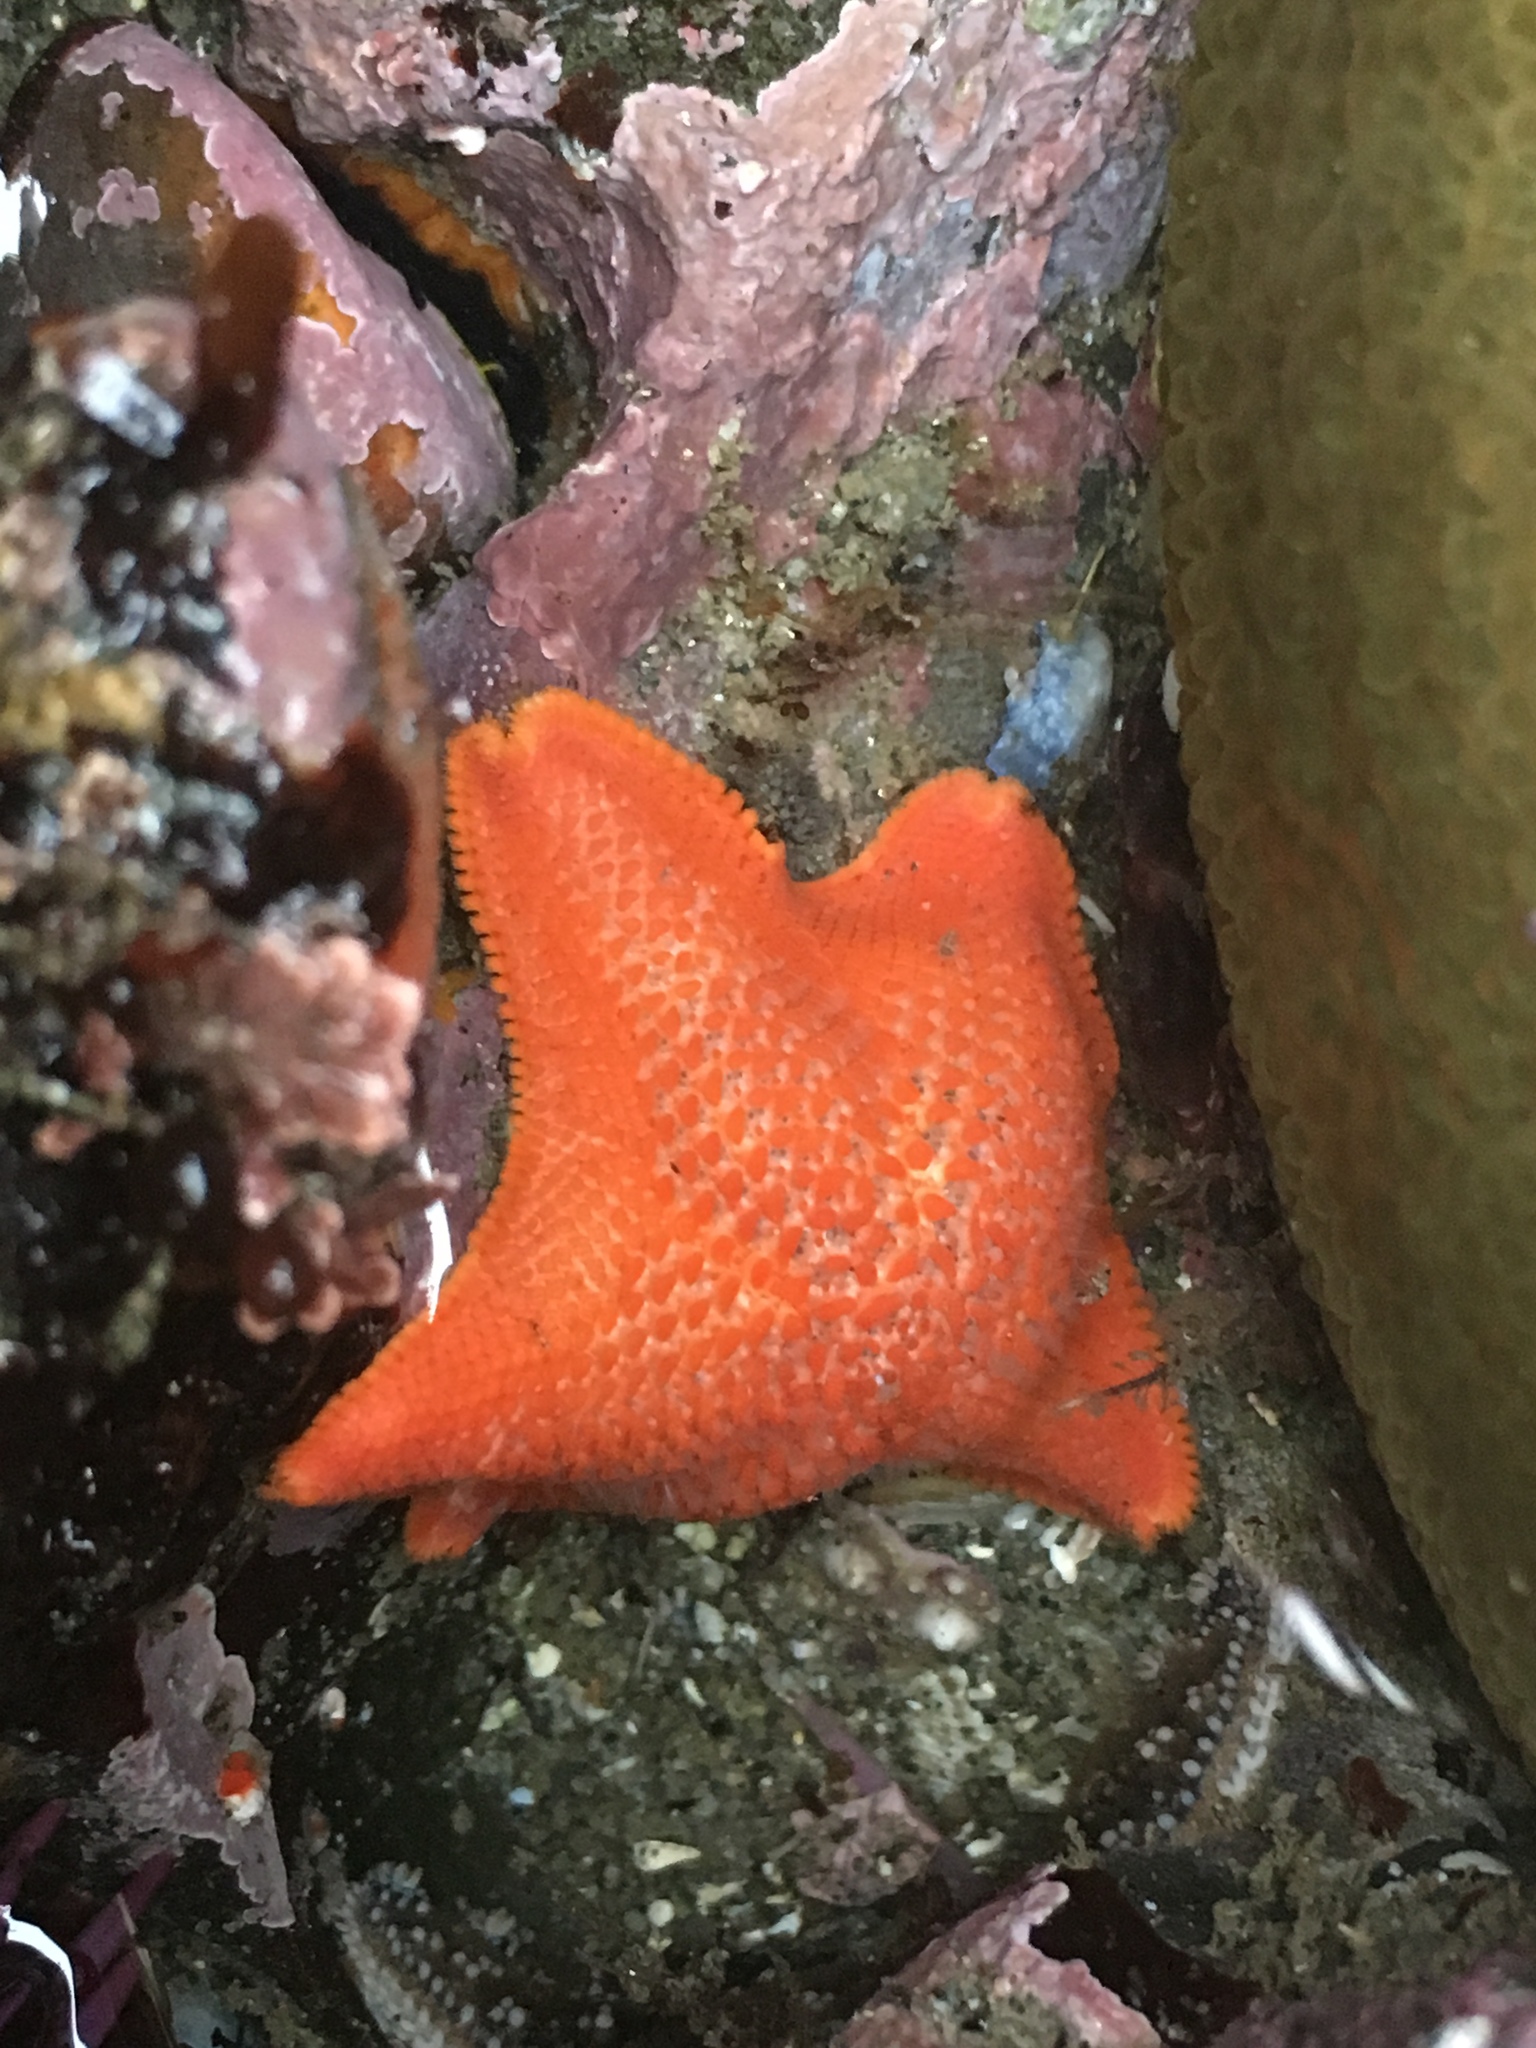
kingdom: Animalia
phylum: Echinodermata
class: Asteroidea
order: Valvatida
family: Asterinidae
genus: Patiria
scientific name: Patiria miniata
